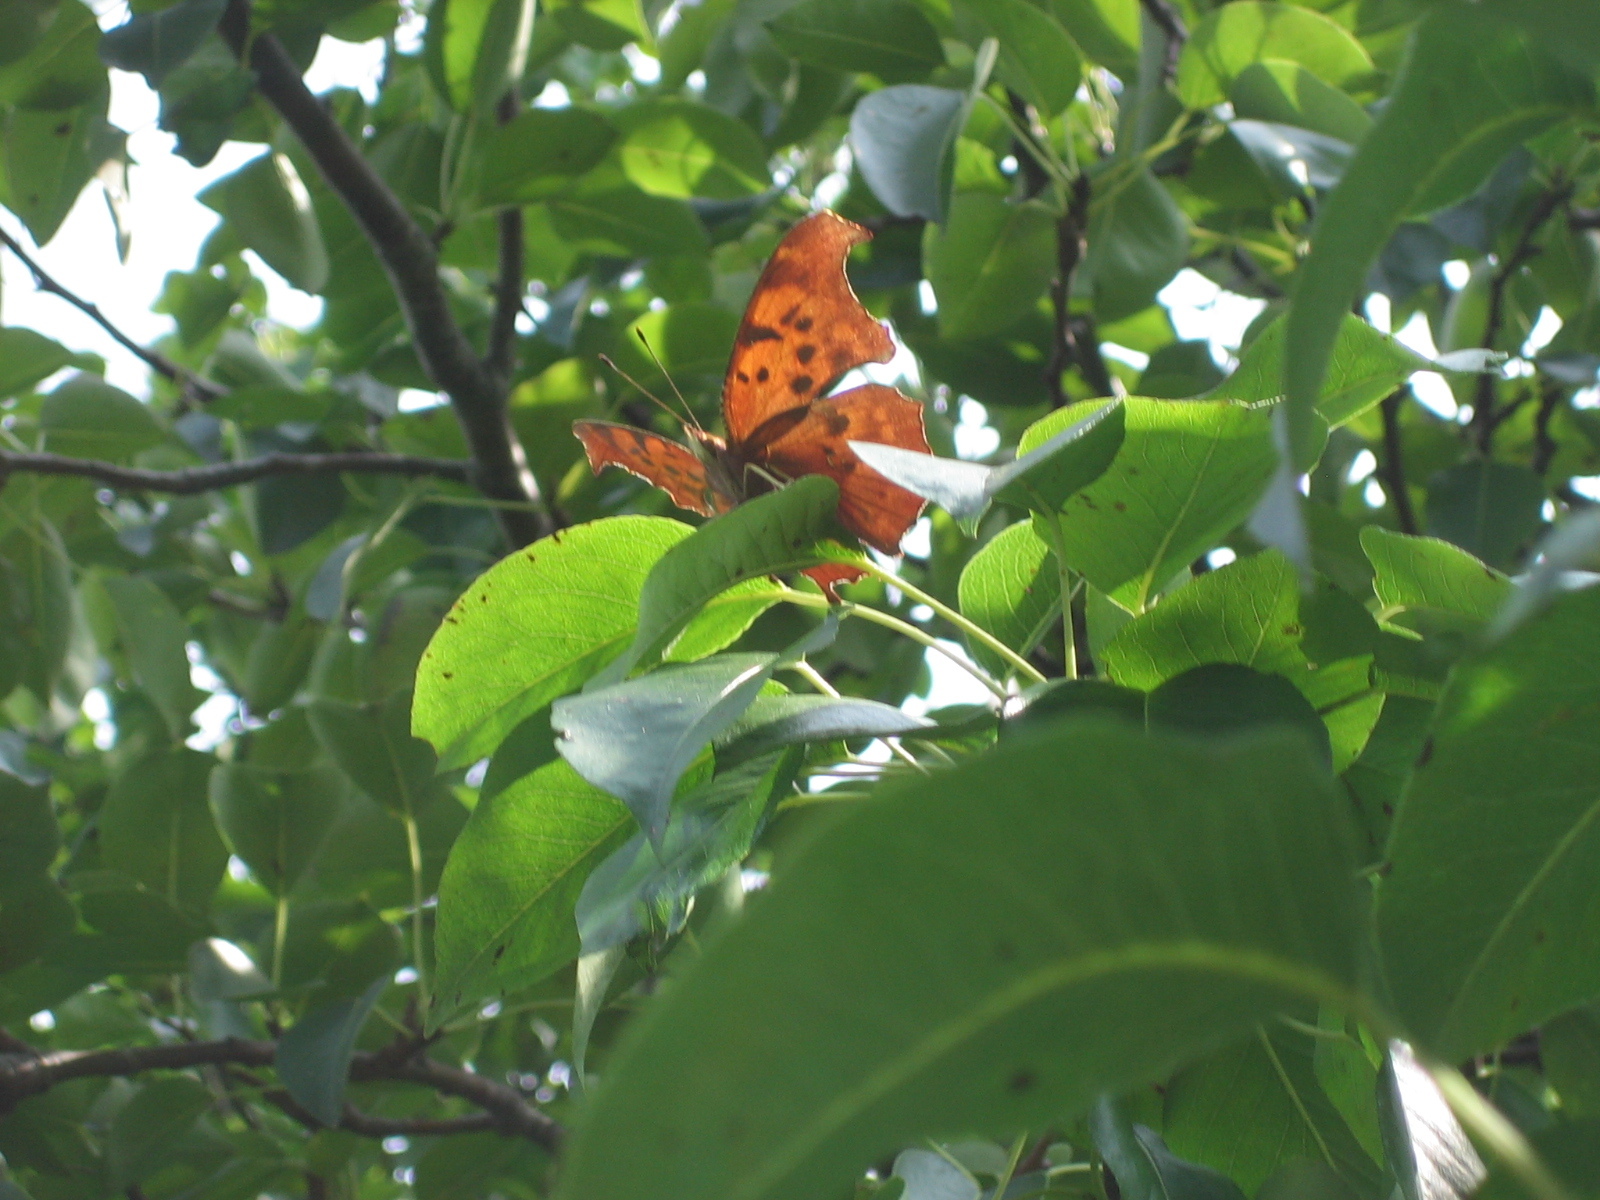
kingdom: Animalia
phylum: Arthropoda
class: Insecta
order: Lepidoptera
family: Nymphalidae
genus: Polygonia
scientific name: Polygonia interrogationis
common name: Question mark
